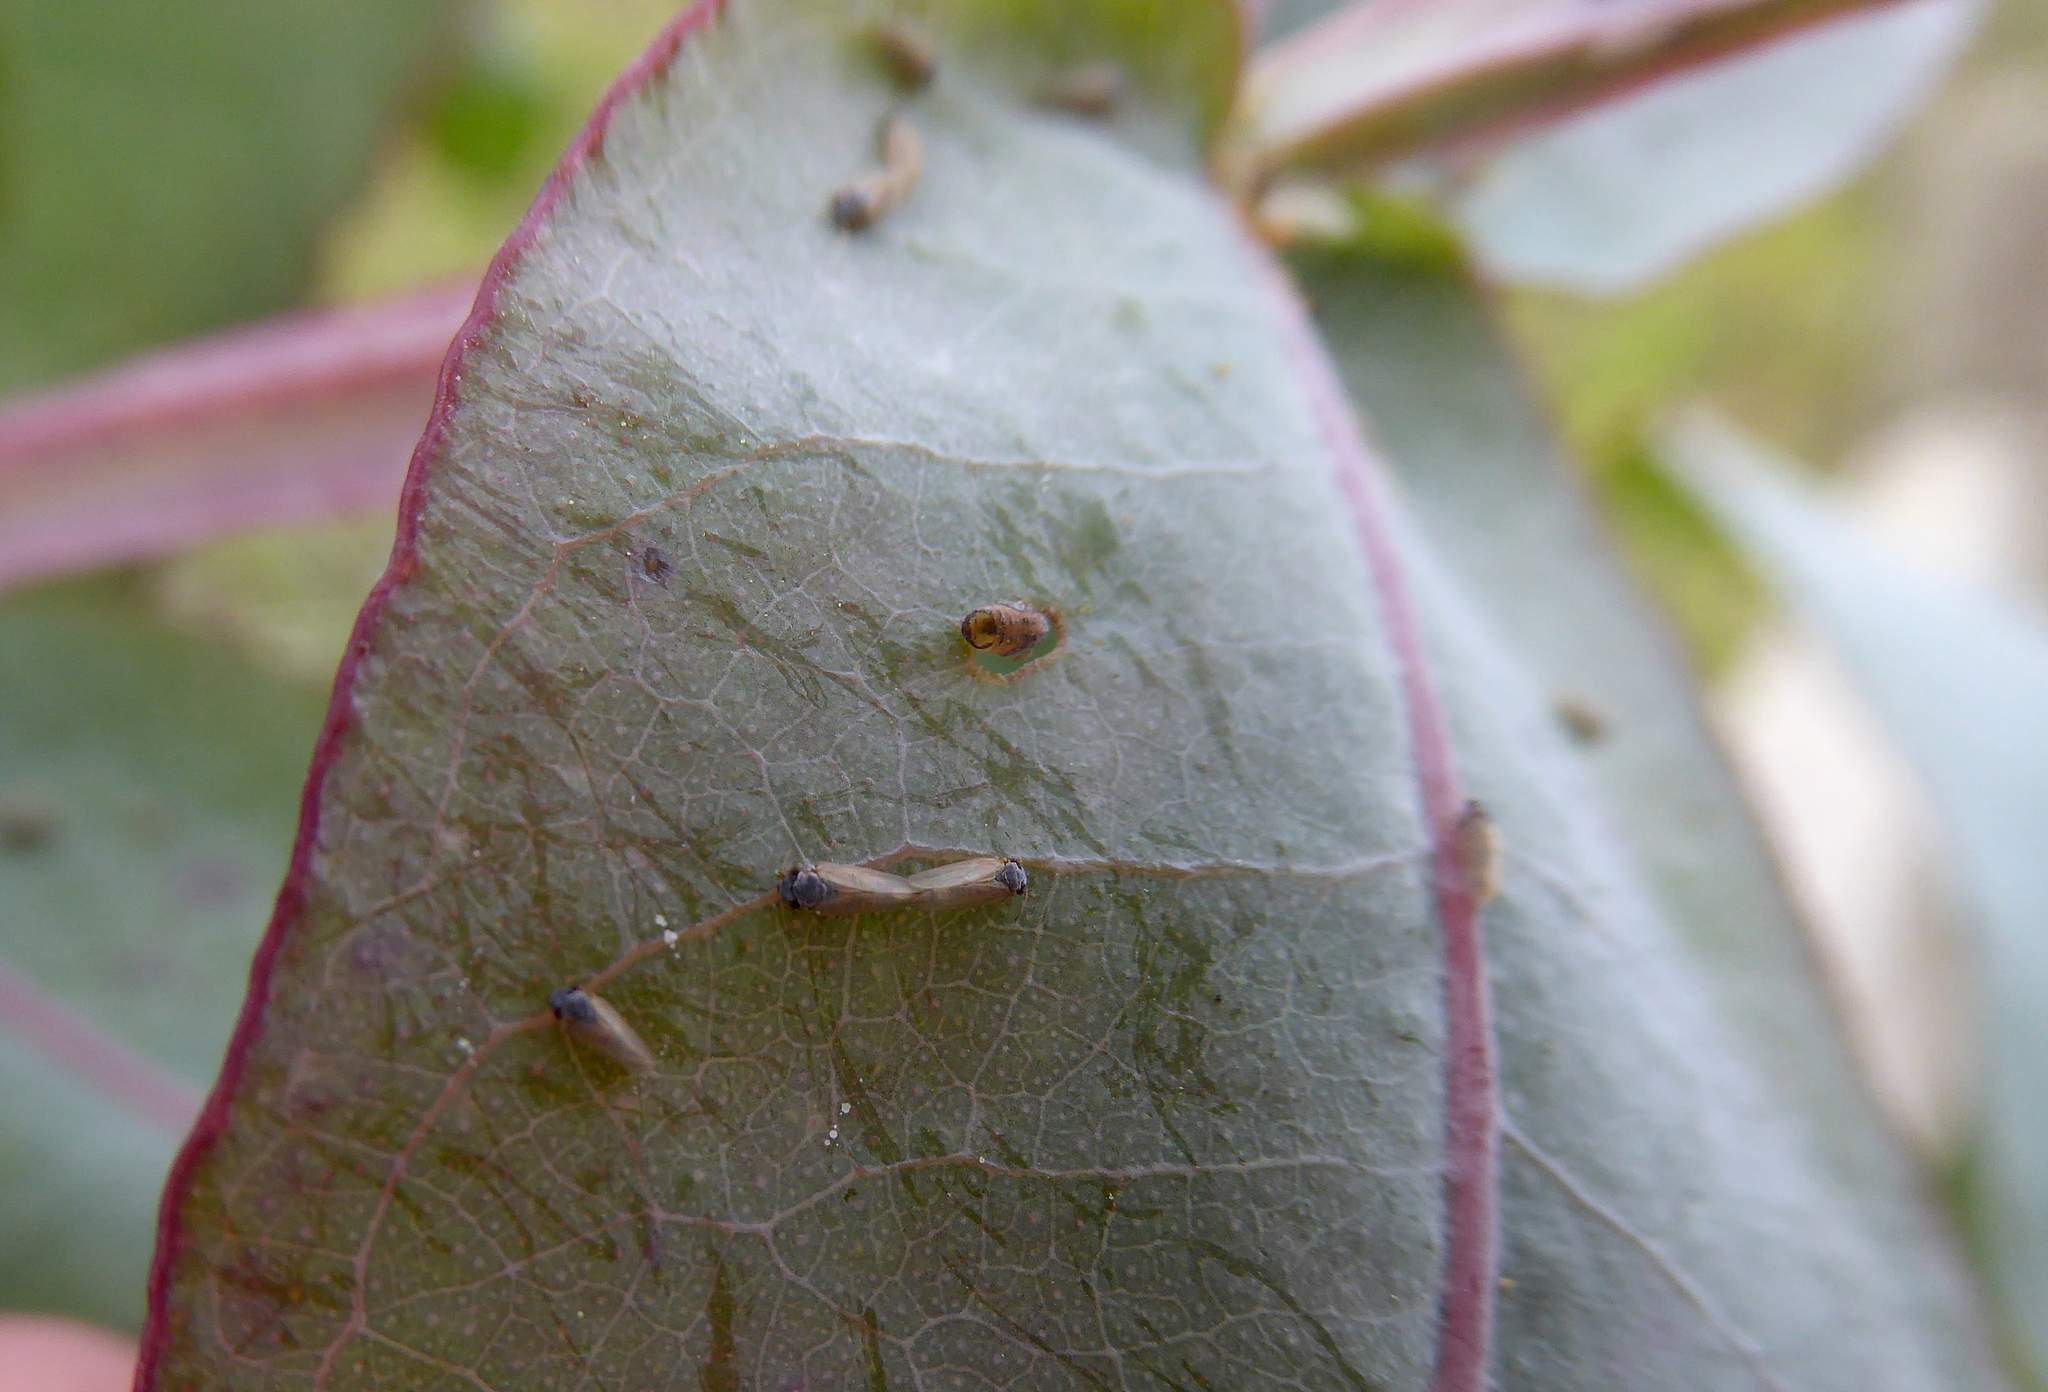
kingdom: Animalia
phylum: Arthropoda
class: Insecta
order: Hemiptera
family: Aphalaridae
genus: Ctenarytaina
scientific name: Ctenarytaina eucalypti
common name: Blue gum psyllid
